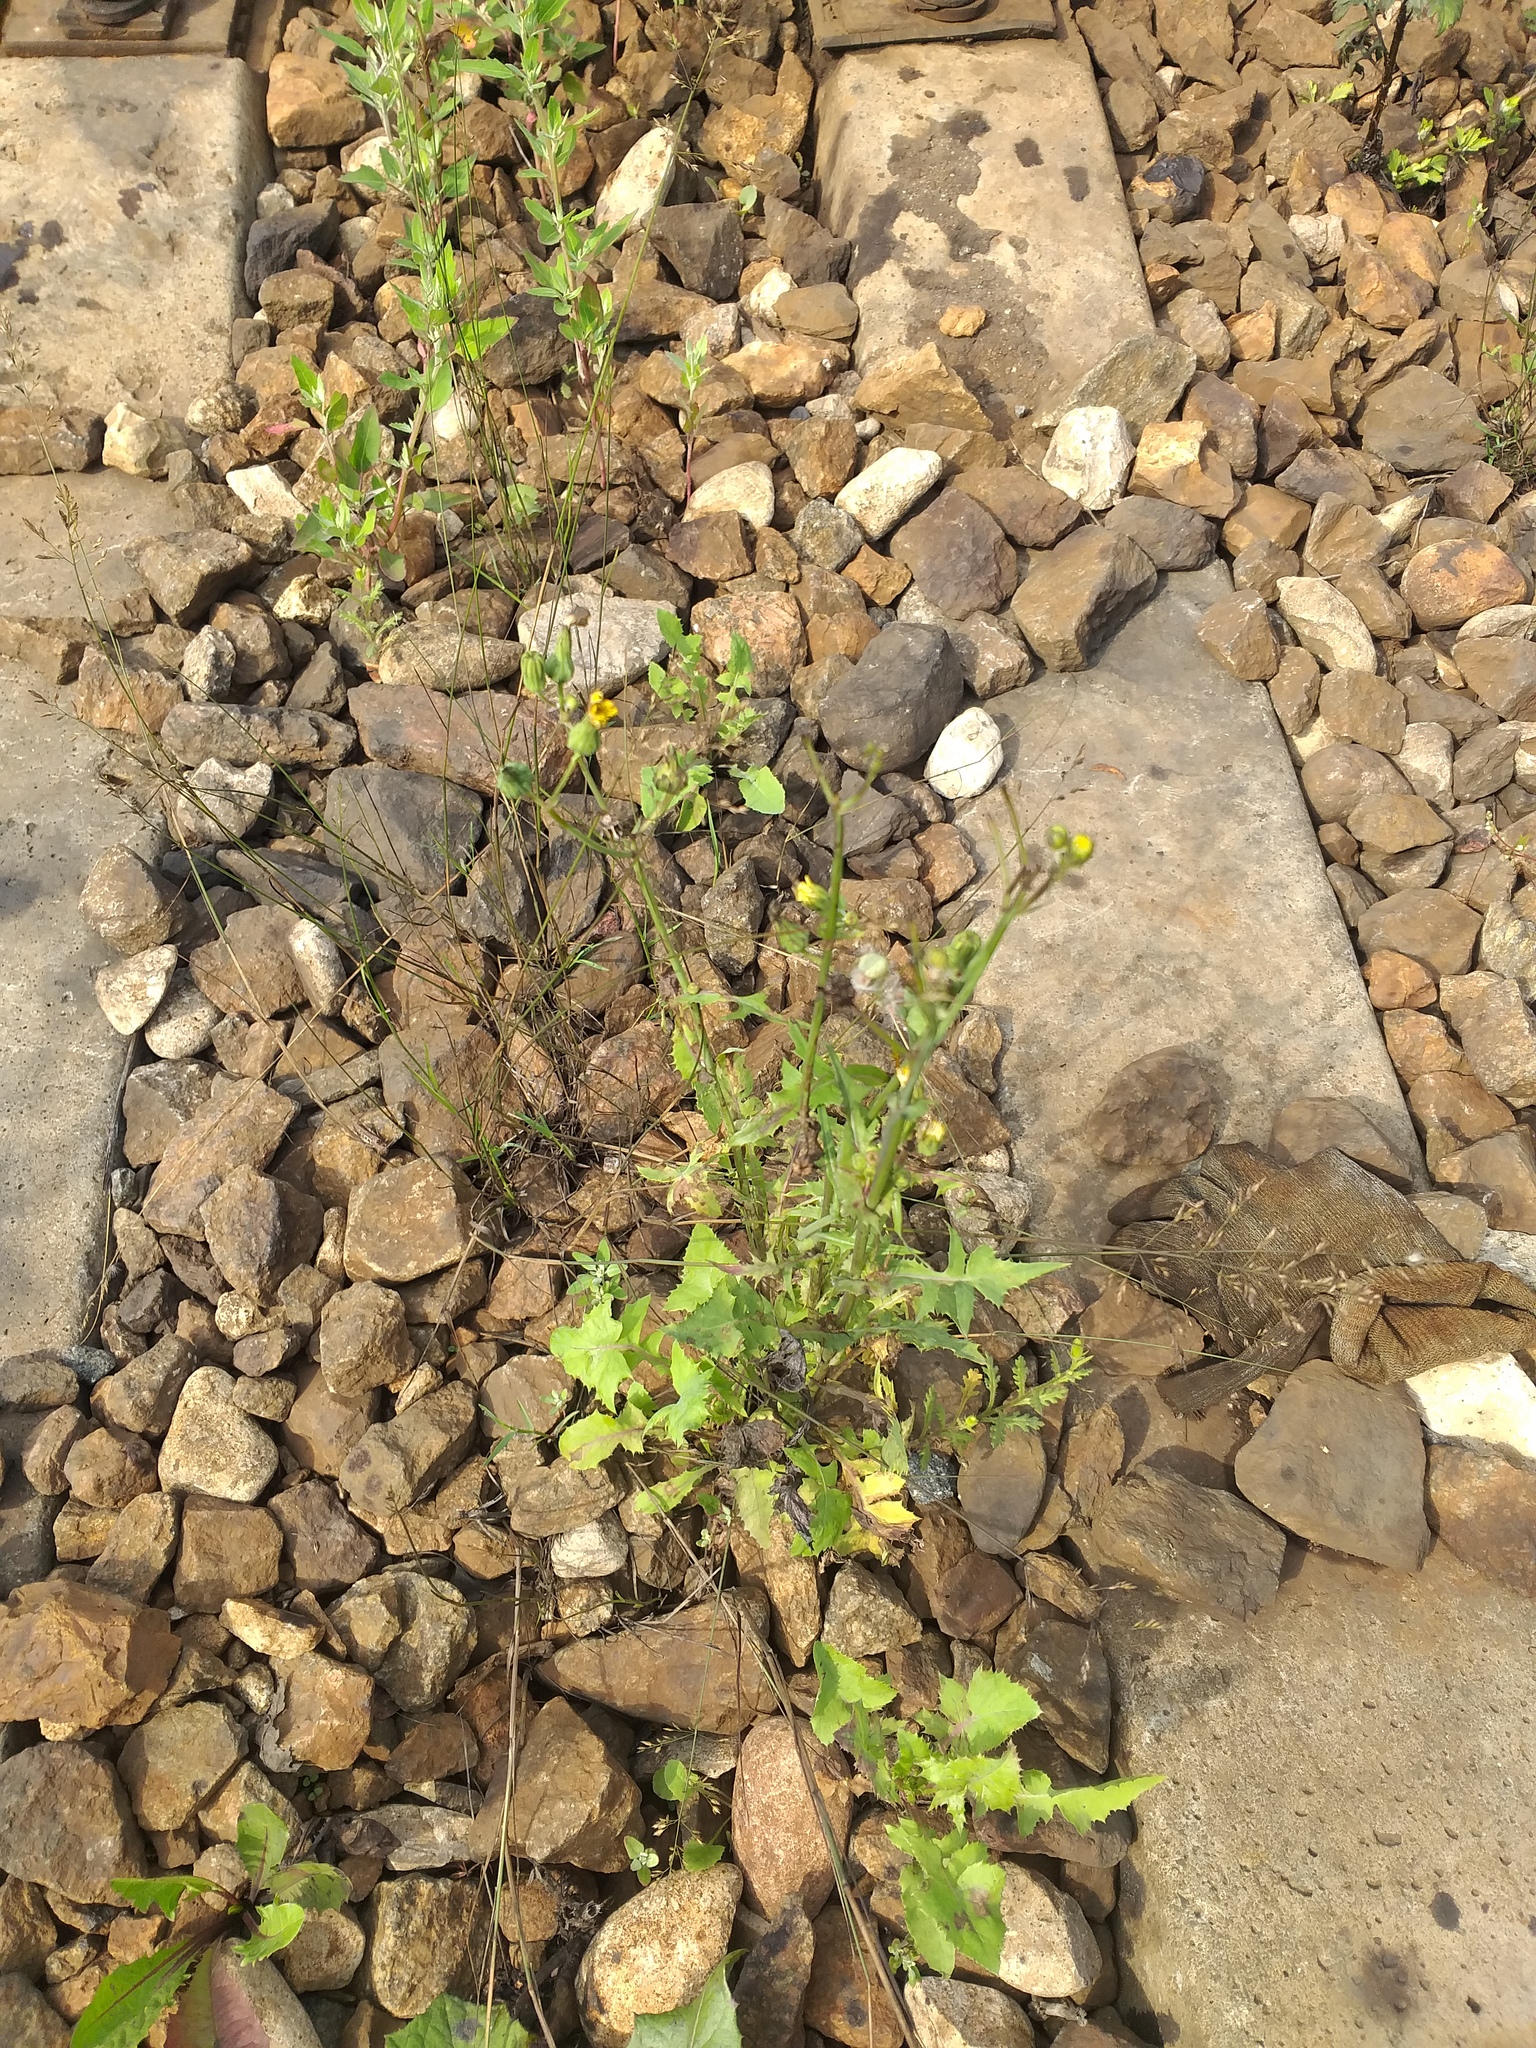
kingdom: Plantae
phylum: Tracheophyta
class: Magnoliopsida
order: Asterales
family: Asteraceae
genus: Sonchus
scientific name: Sonchus oleraceus
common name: Common sowthistle
